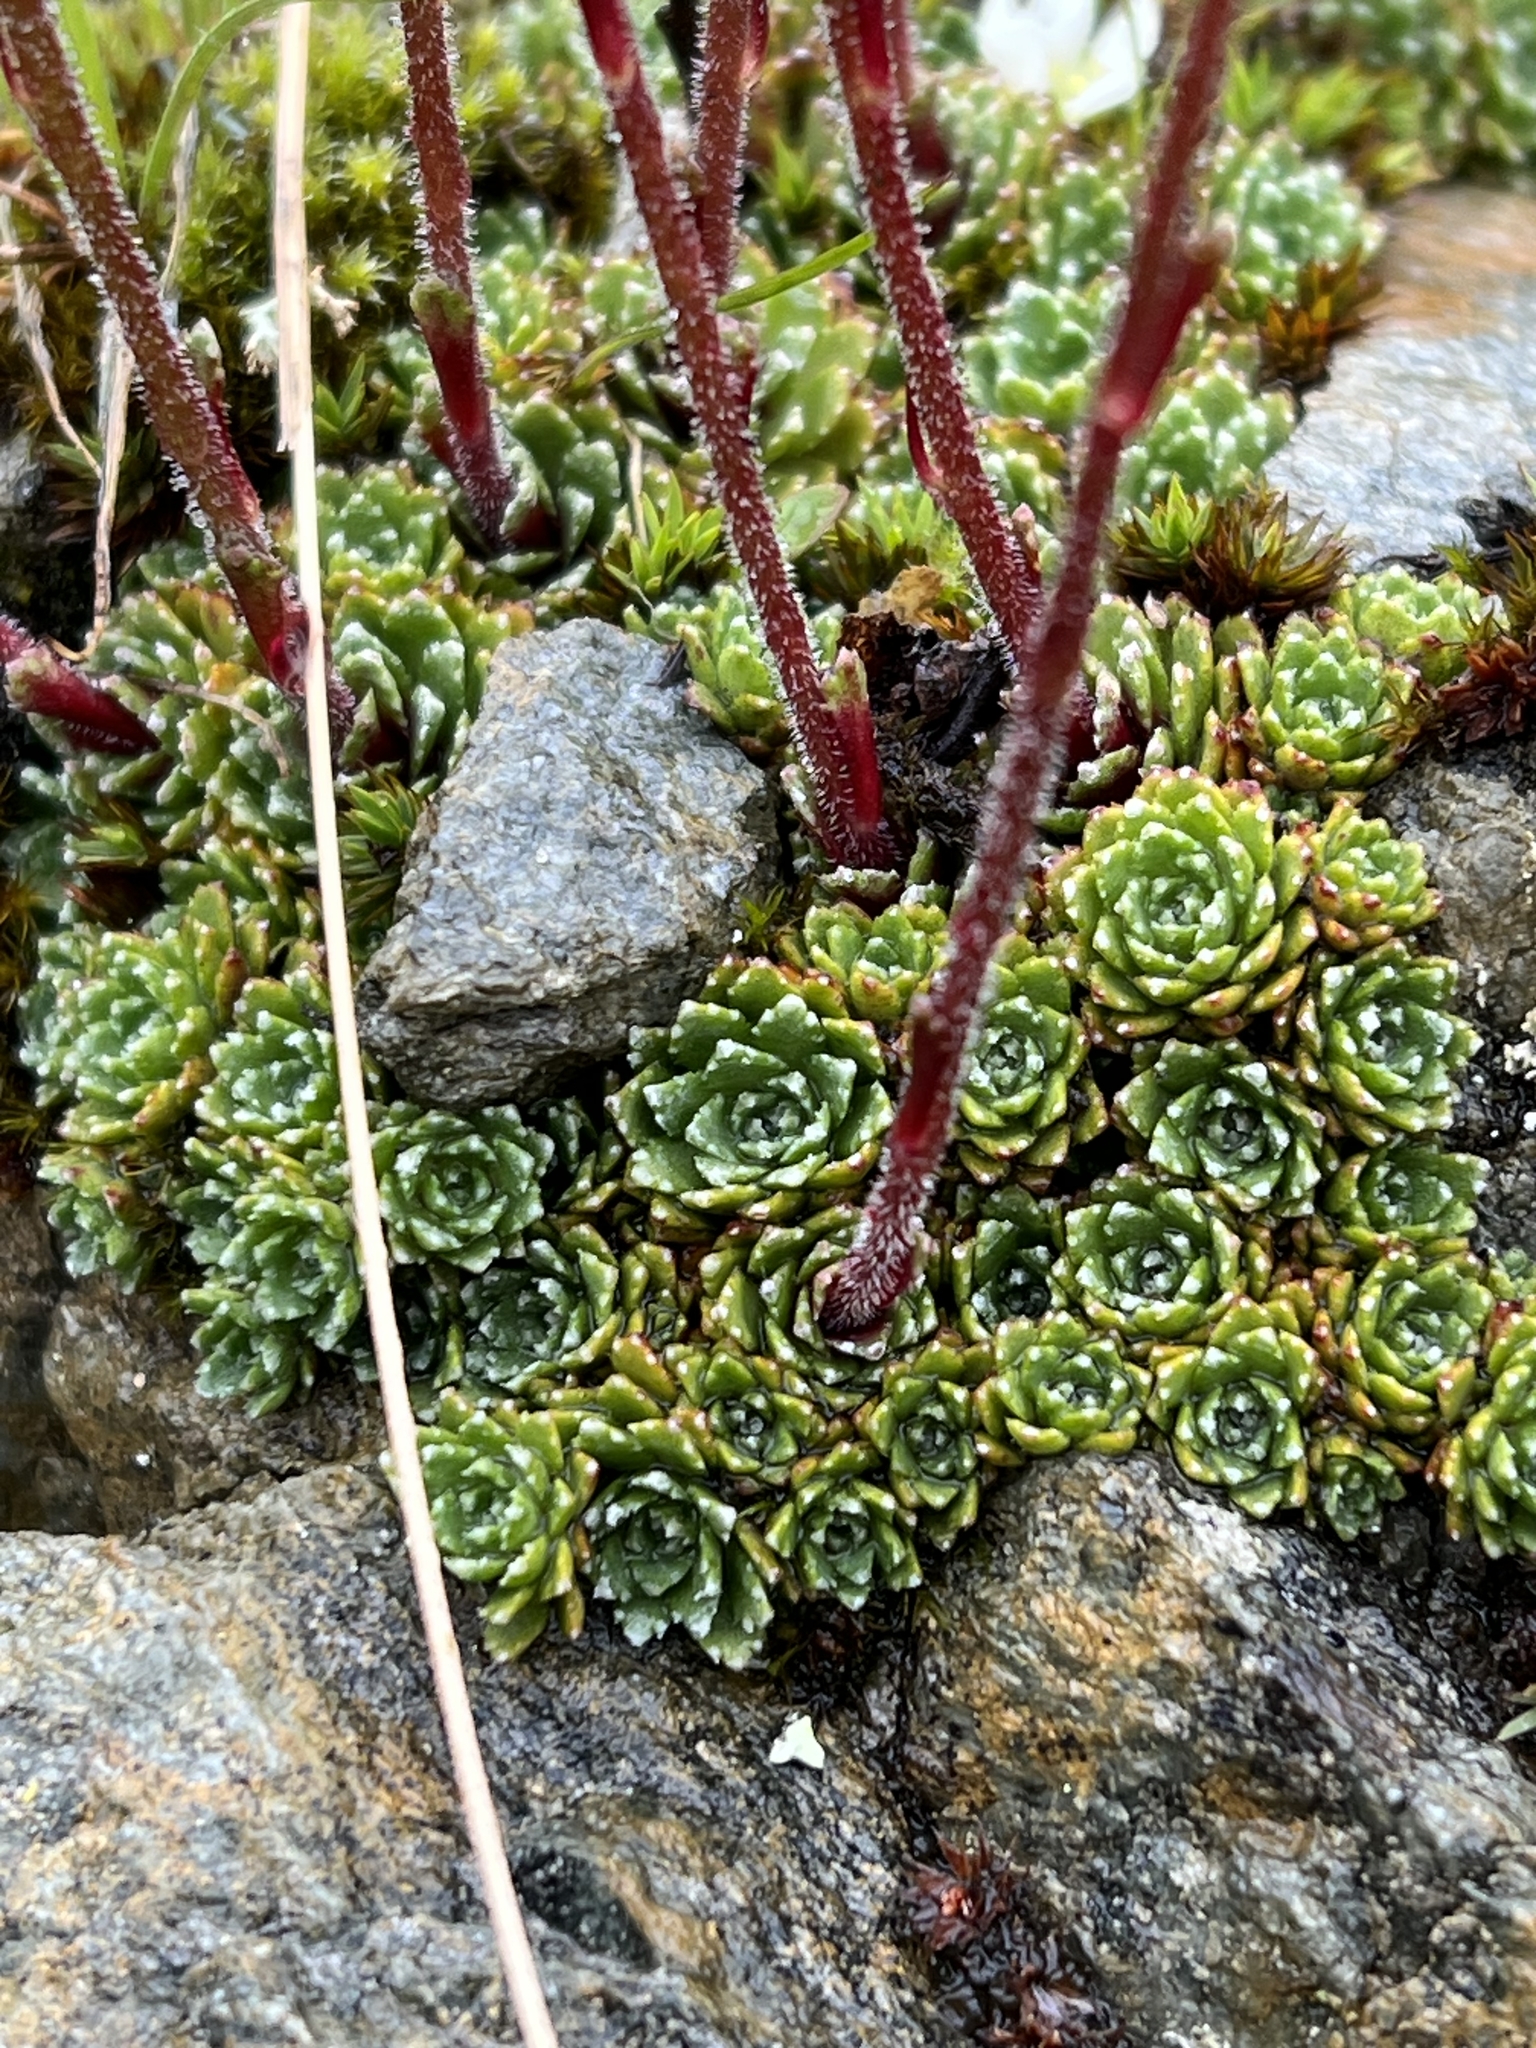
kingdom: Plantae
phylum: Tracheophyta
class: Magnoliopsida
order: Saxifragales
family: Saxifragaceae
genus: Saxifraga
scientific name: Saxifraga paniculata
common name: Livelong saxifrage
